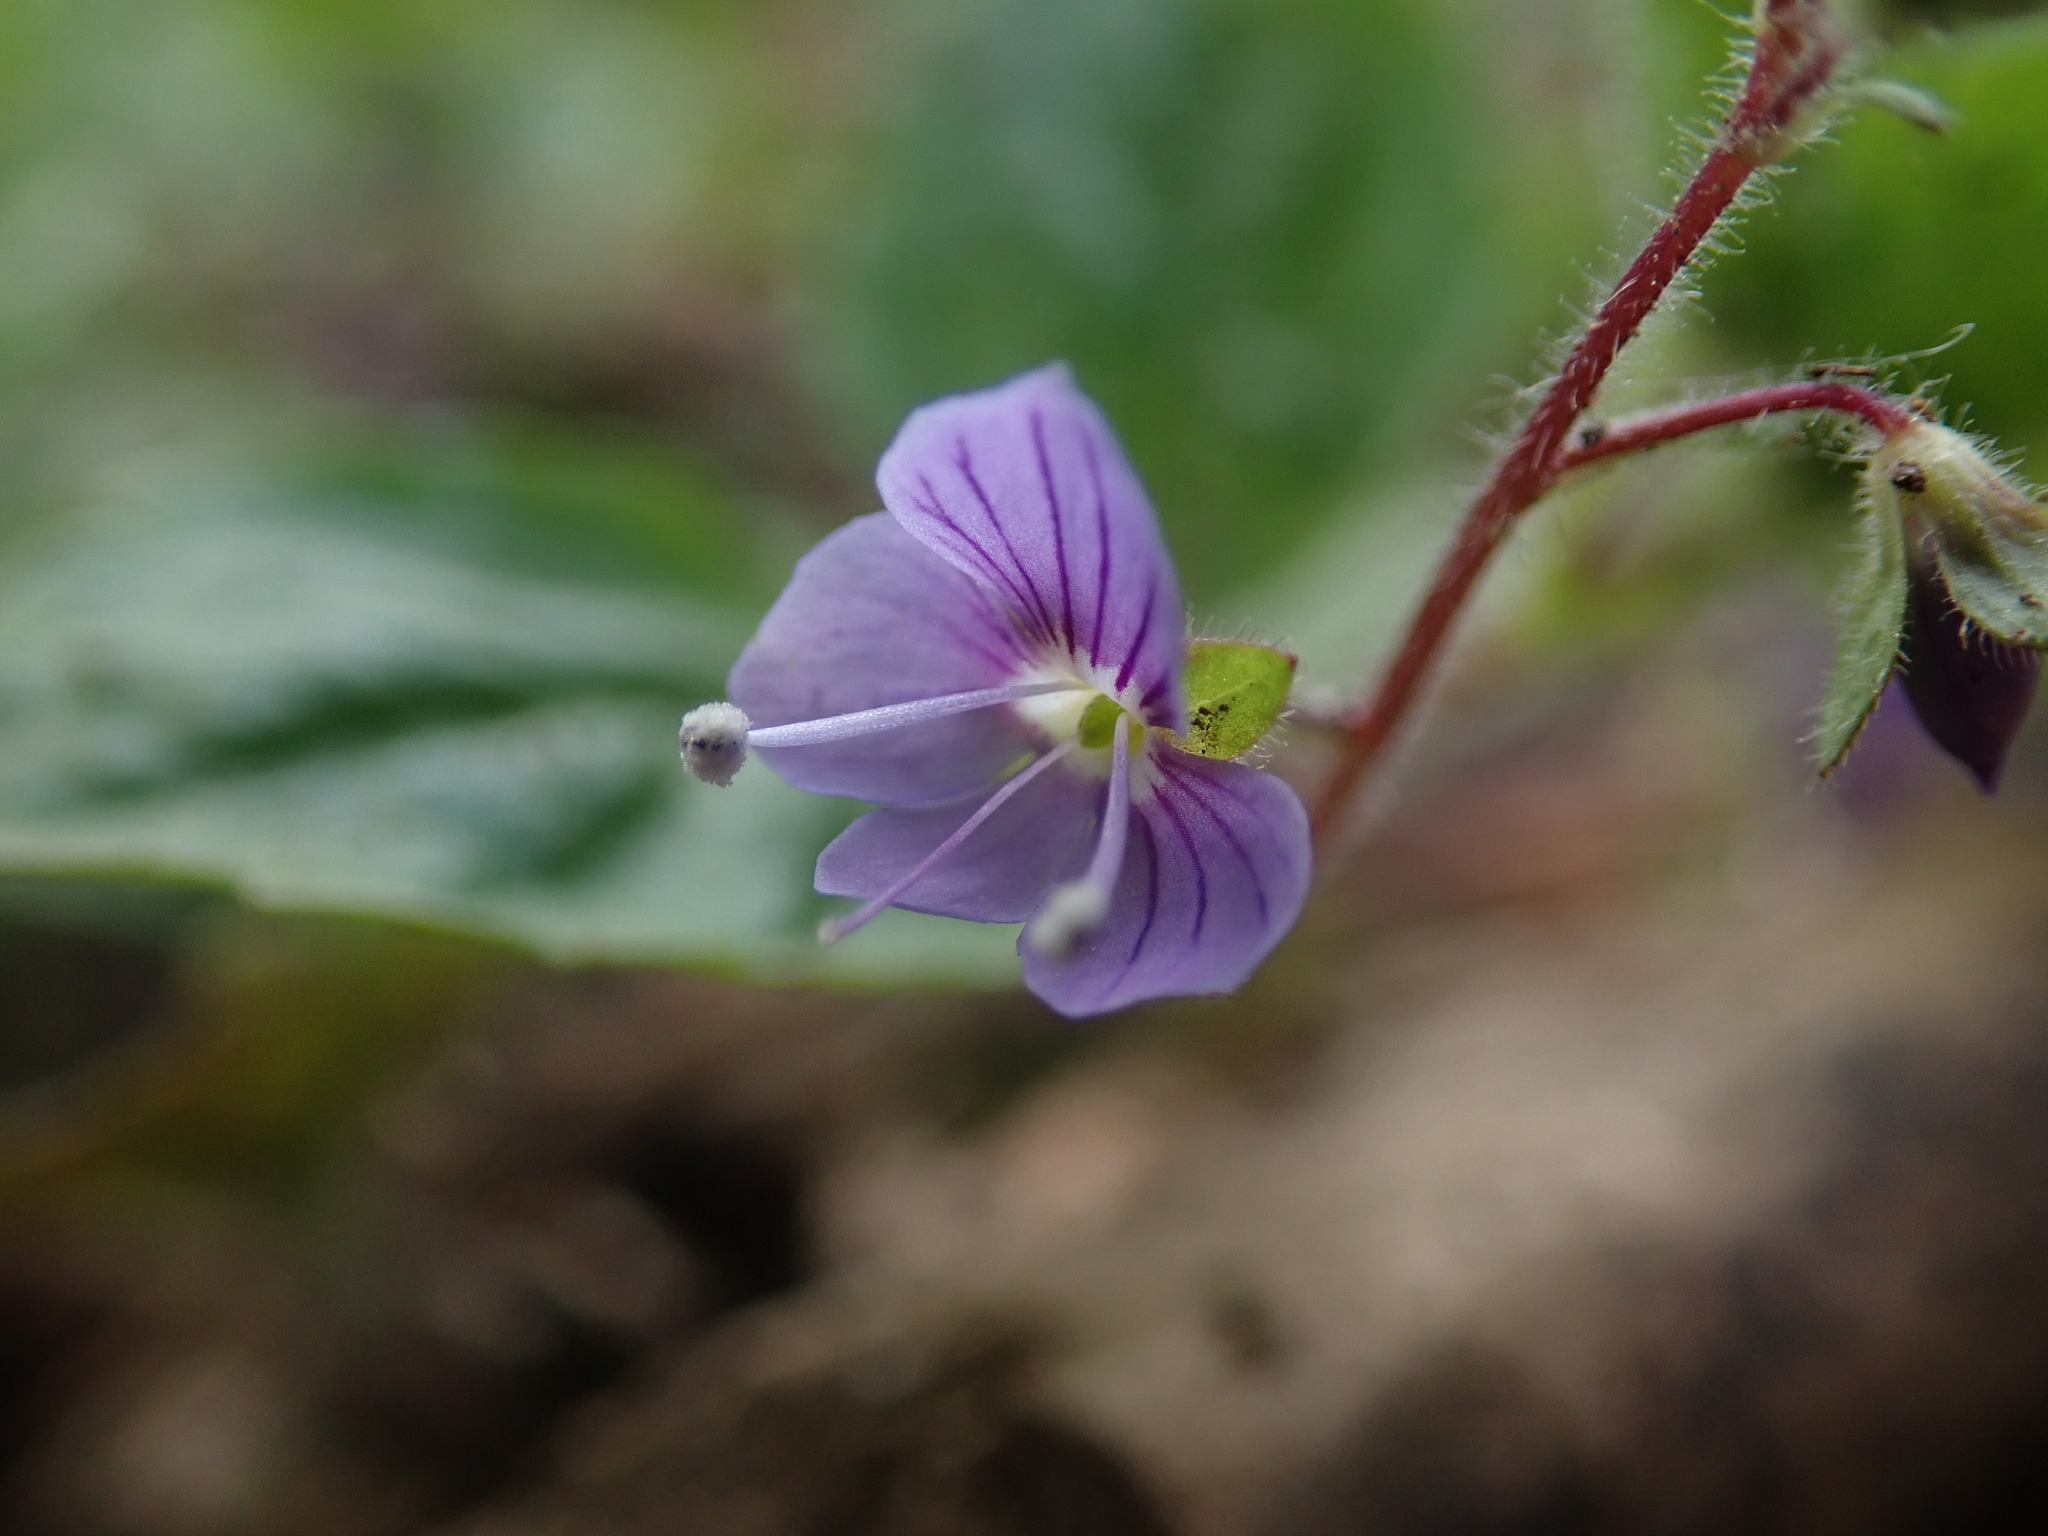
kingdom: Plantae
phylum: Tracheophyta
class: Magnoliopsida
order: Lamiales
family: Plantaginaceae
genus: Veronica
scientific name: Veronica montana
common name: Wood speedwell
